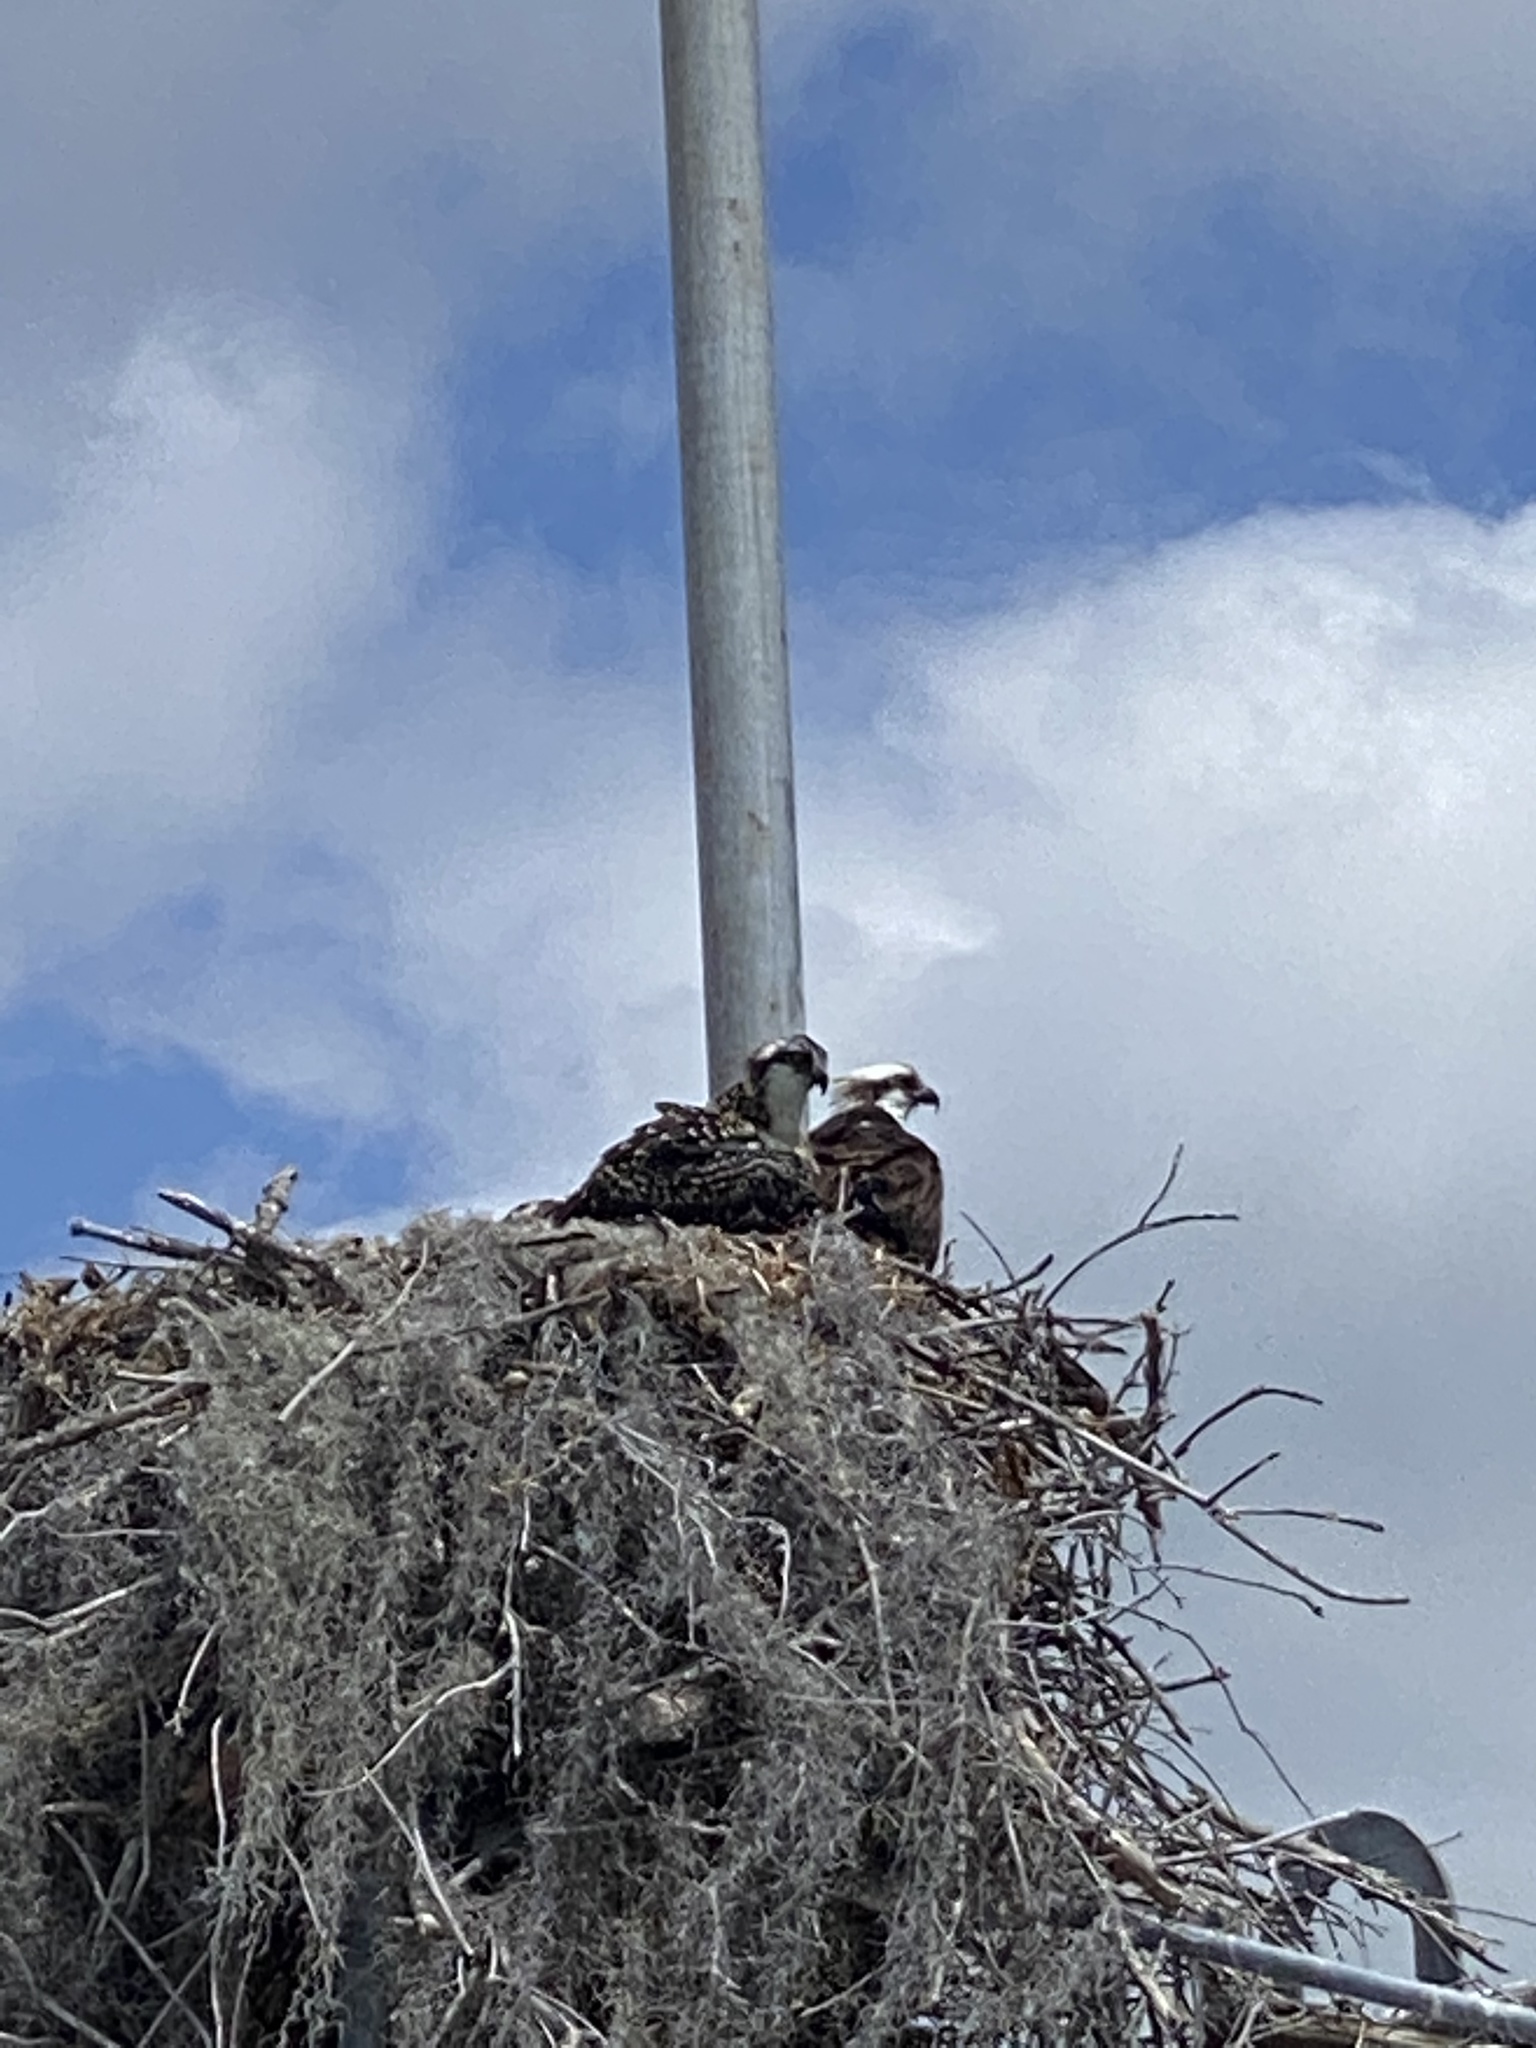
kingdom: Animalia
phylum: Chordata
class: Aves
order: Accipitriformes
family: Pandionidae
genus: Pandion
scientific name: Pandion haliaetus
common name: Osprey
